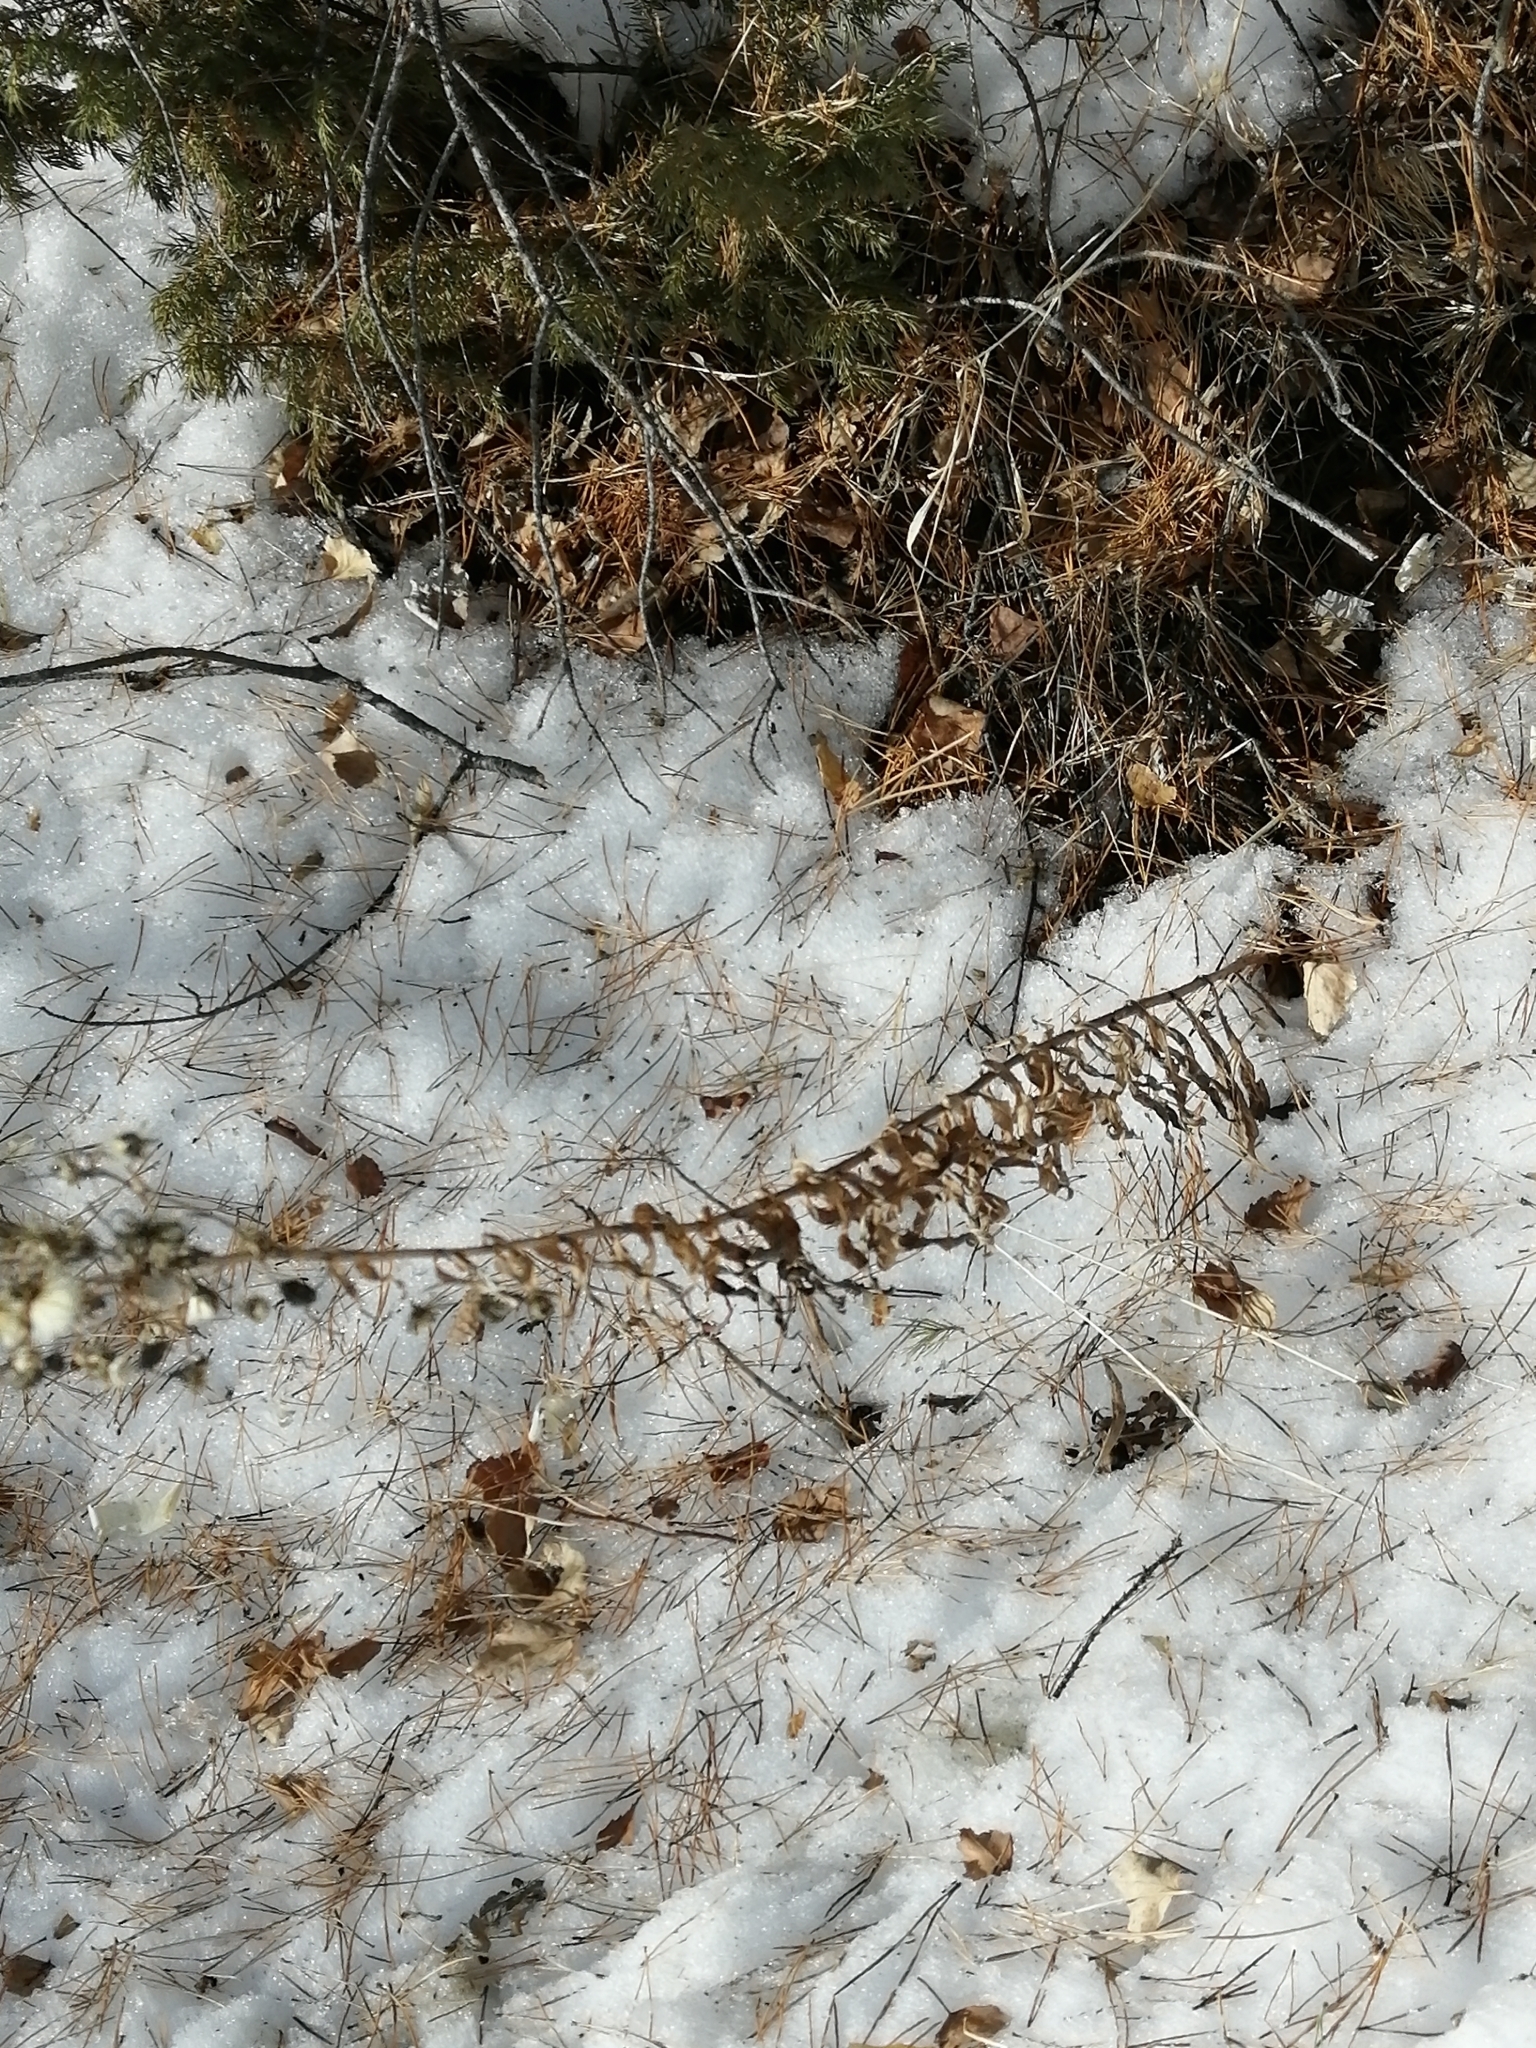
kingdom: Plantae
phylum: Tracheophyta
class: Magnoliopsida
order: Asterales
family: Asteraceae
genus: Hieracium
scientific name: Hieracium umbellatum
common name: Northern hawkweed
